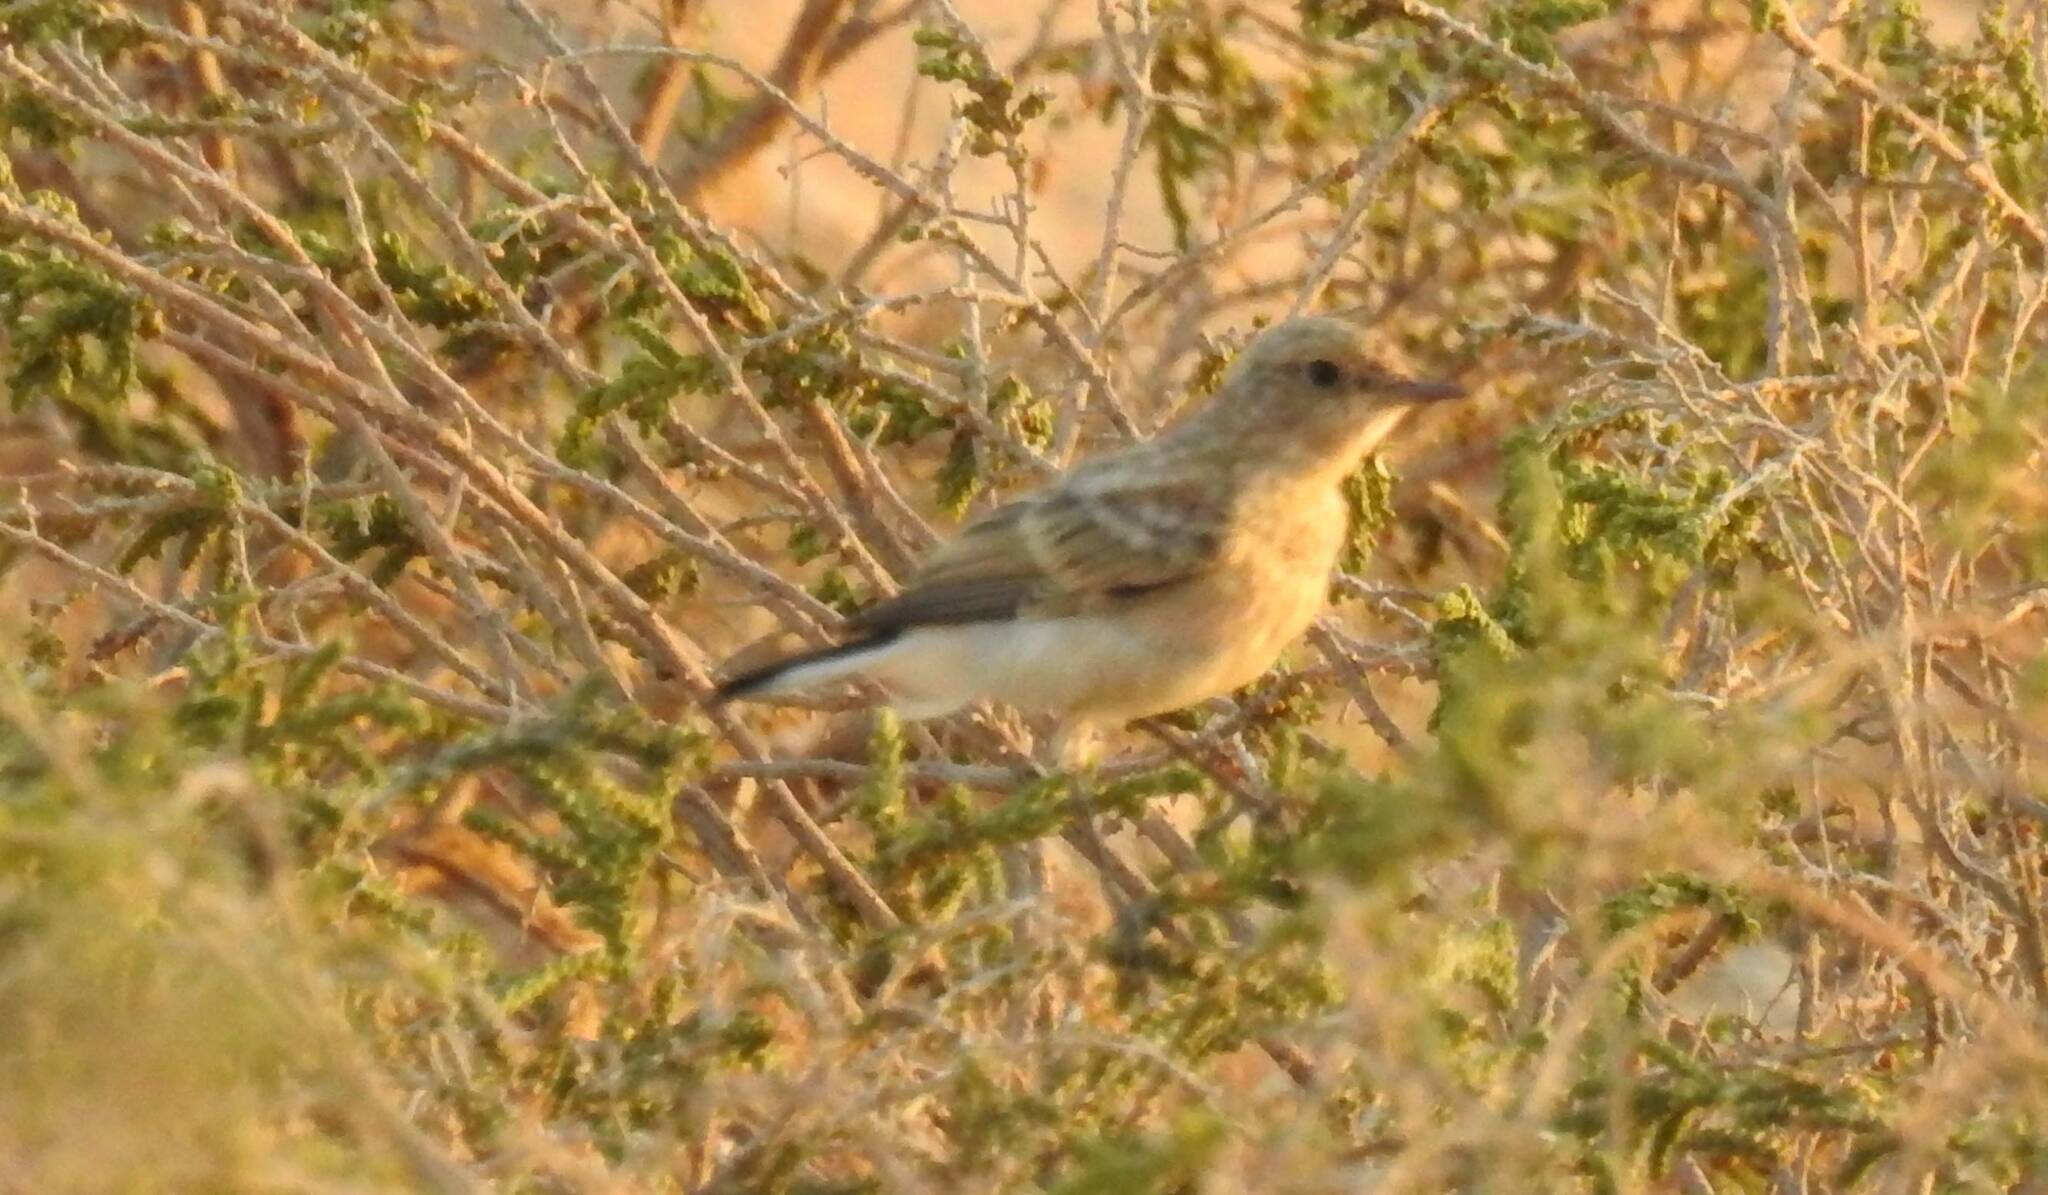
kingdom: Animalia
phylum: Chordata
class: Aves
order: Passeriformes
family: Muscicapidae
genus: Oenanthe
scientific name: Oenanthe hispanica
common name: Black-eared wheatear
